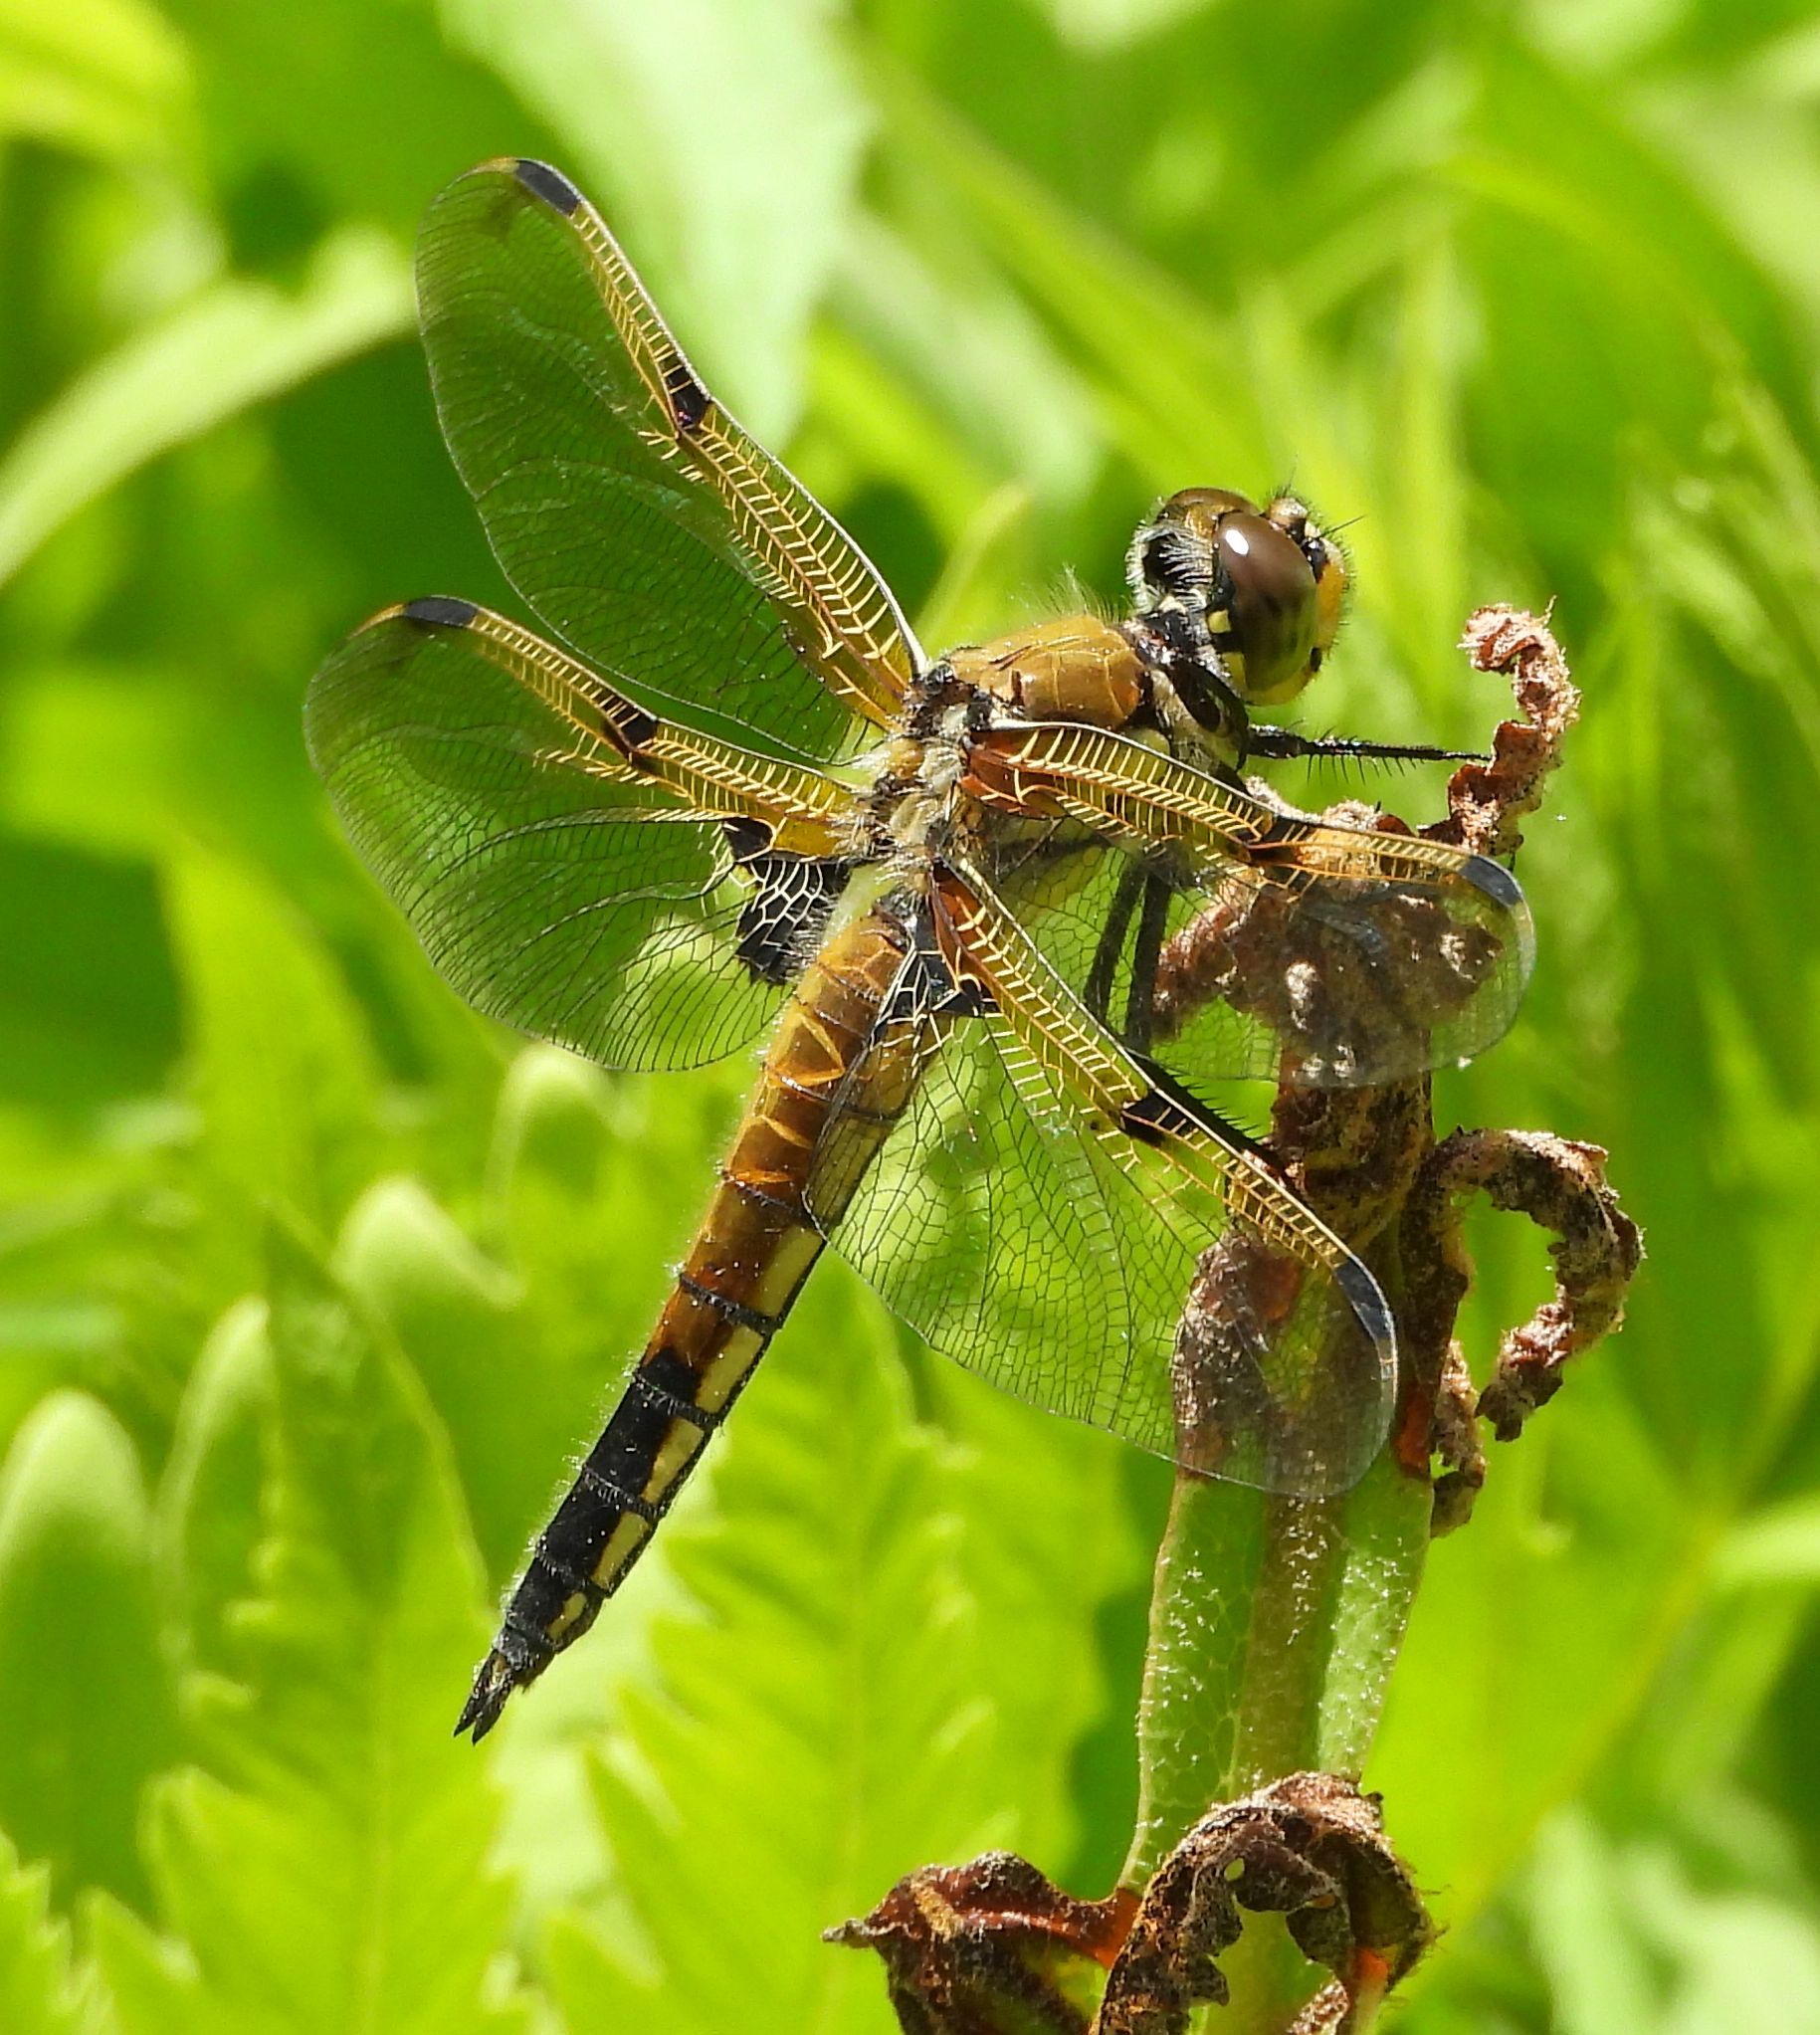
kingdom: Animalia
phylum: Arthropoda
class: Insecta
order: Odonata
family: Libellulidae
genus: Libellula
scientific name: Libellula quadrimaculata
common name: Four-spotted chaser
